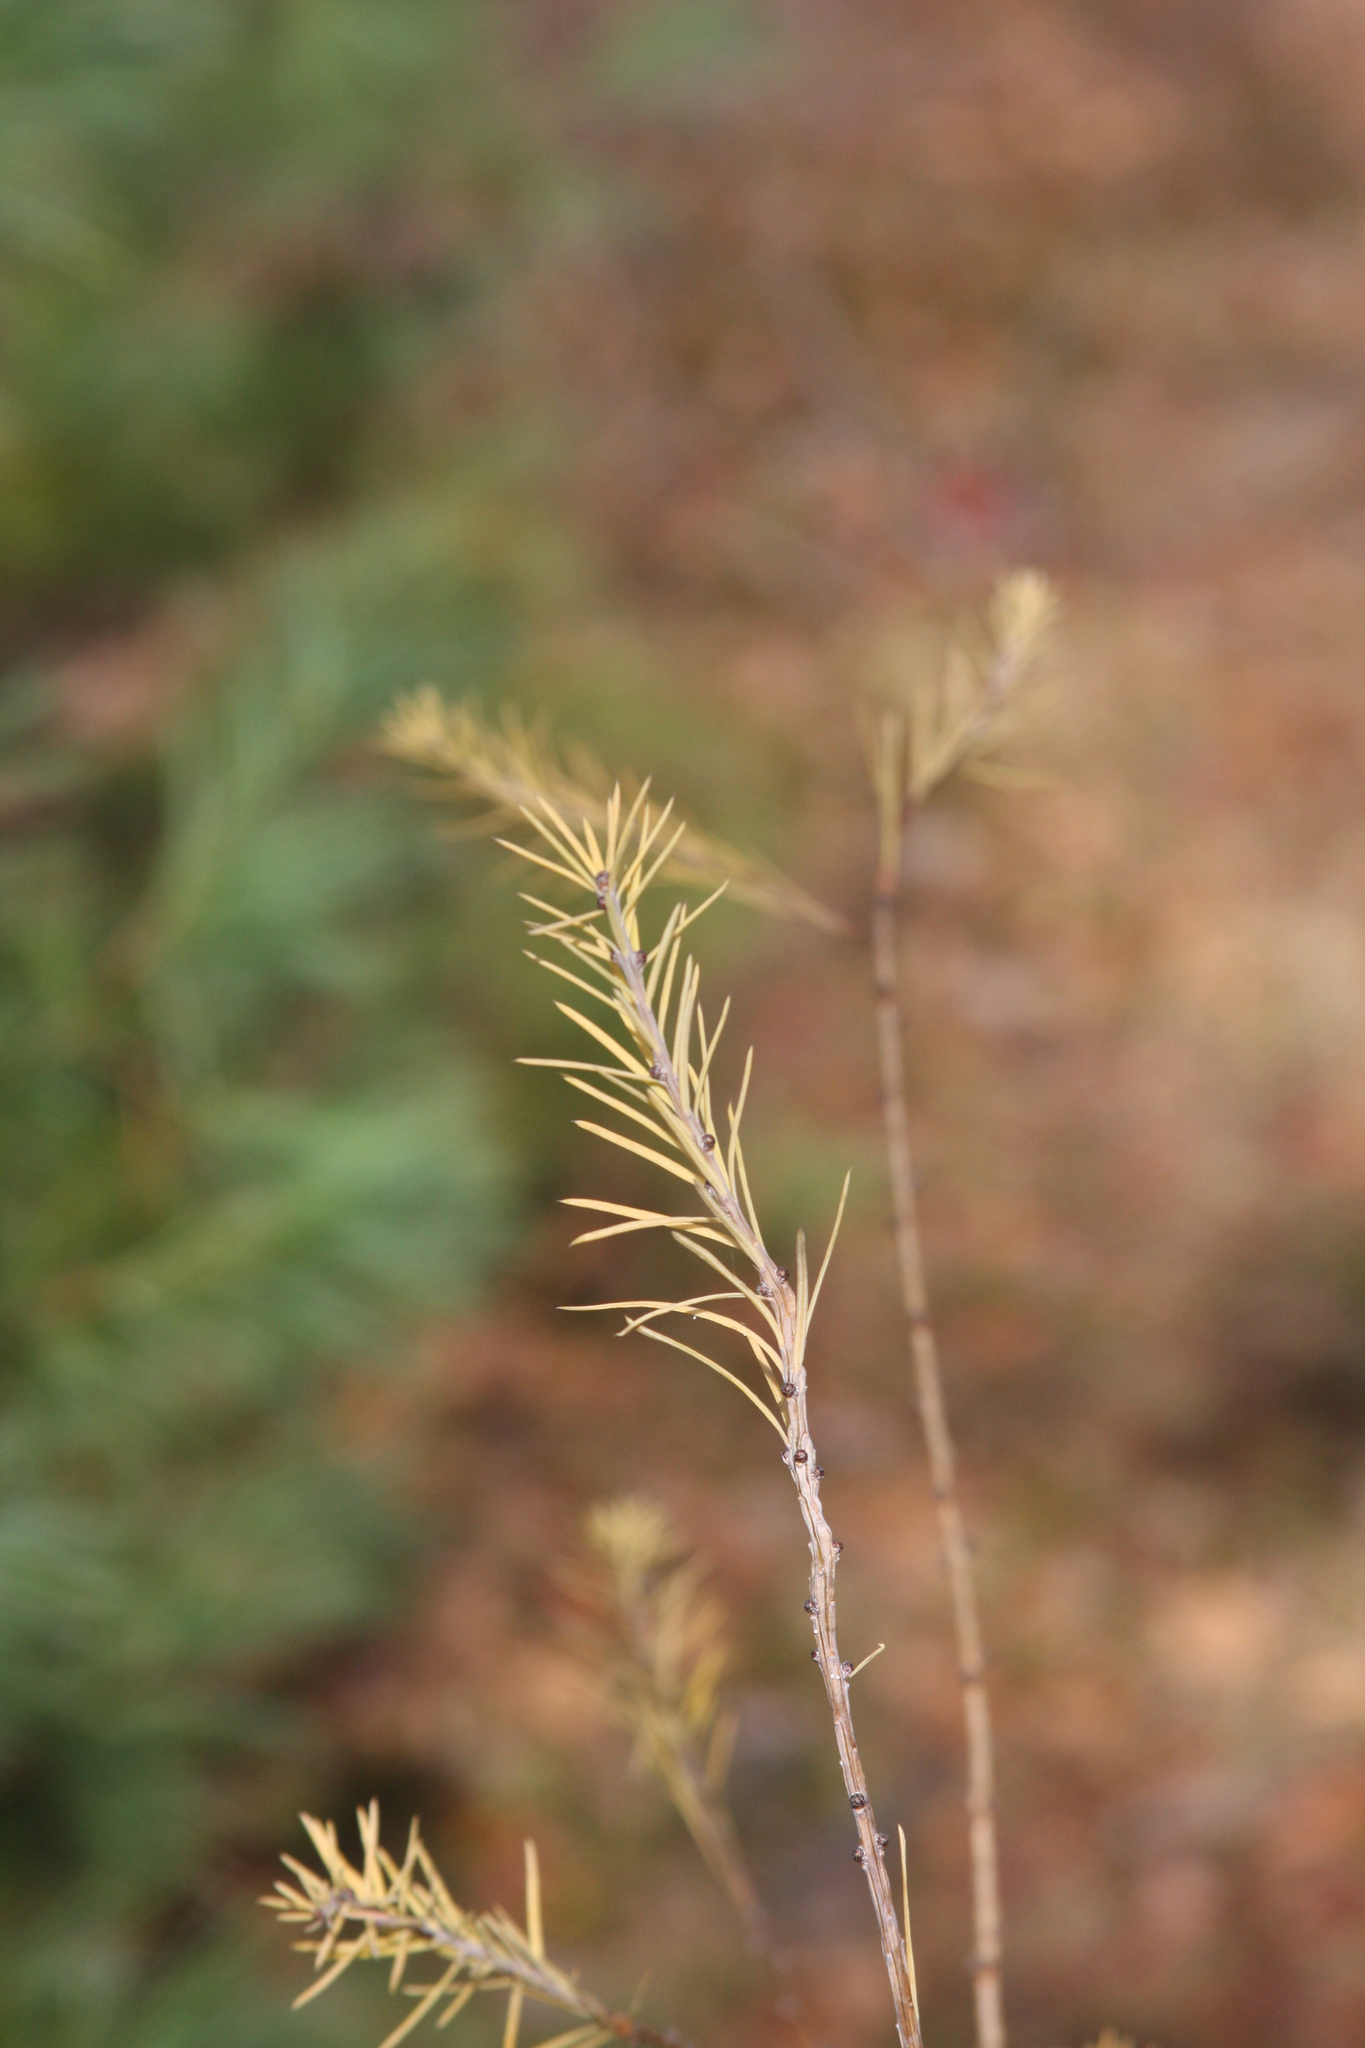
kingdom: Plantae
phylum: Tracheophyta
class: Pinopsida
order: Pinales
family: Pinaceae
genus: Larix
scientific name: Larix laricina
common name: American larch
